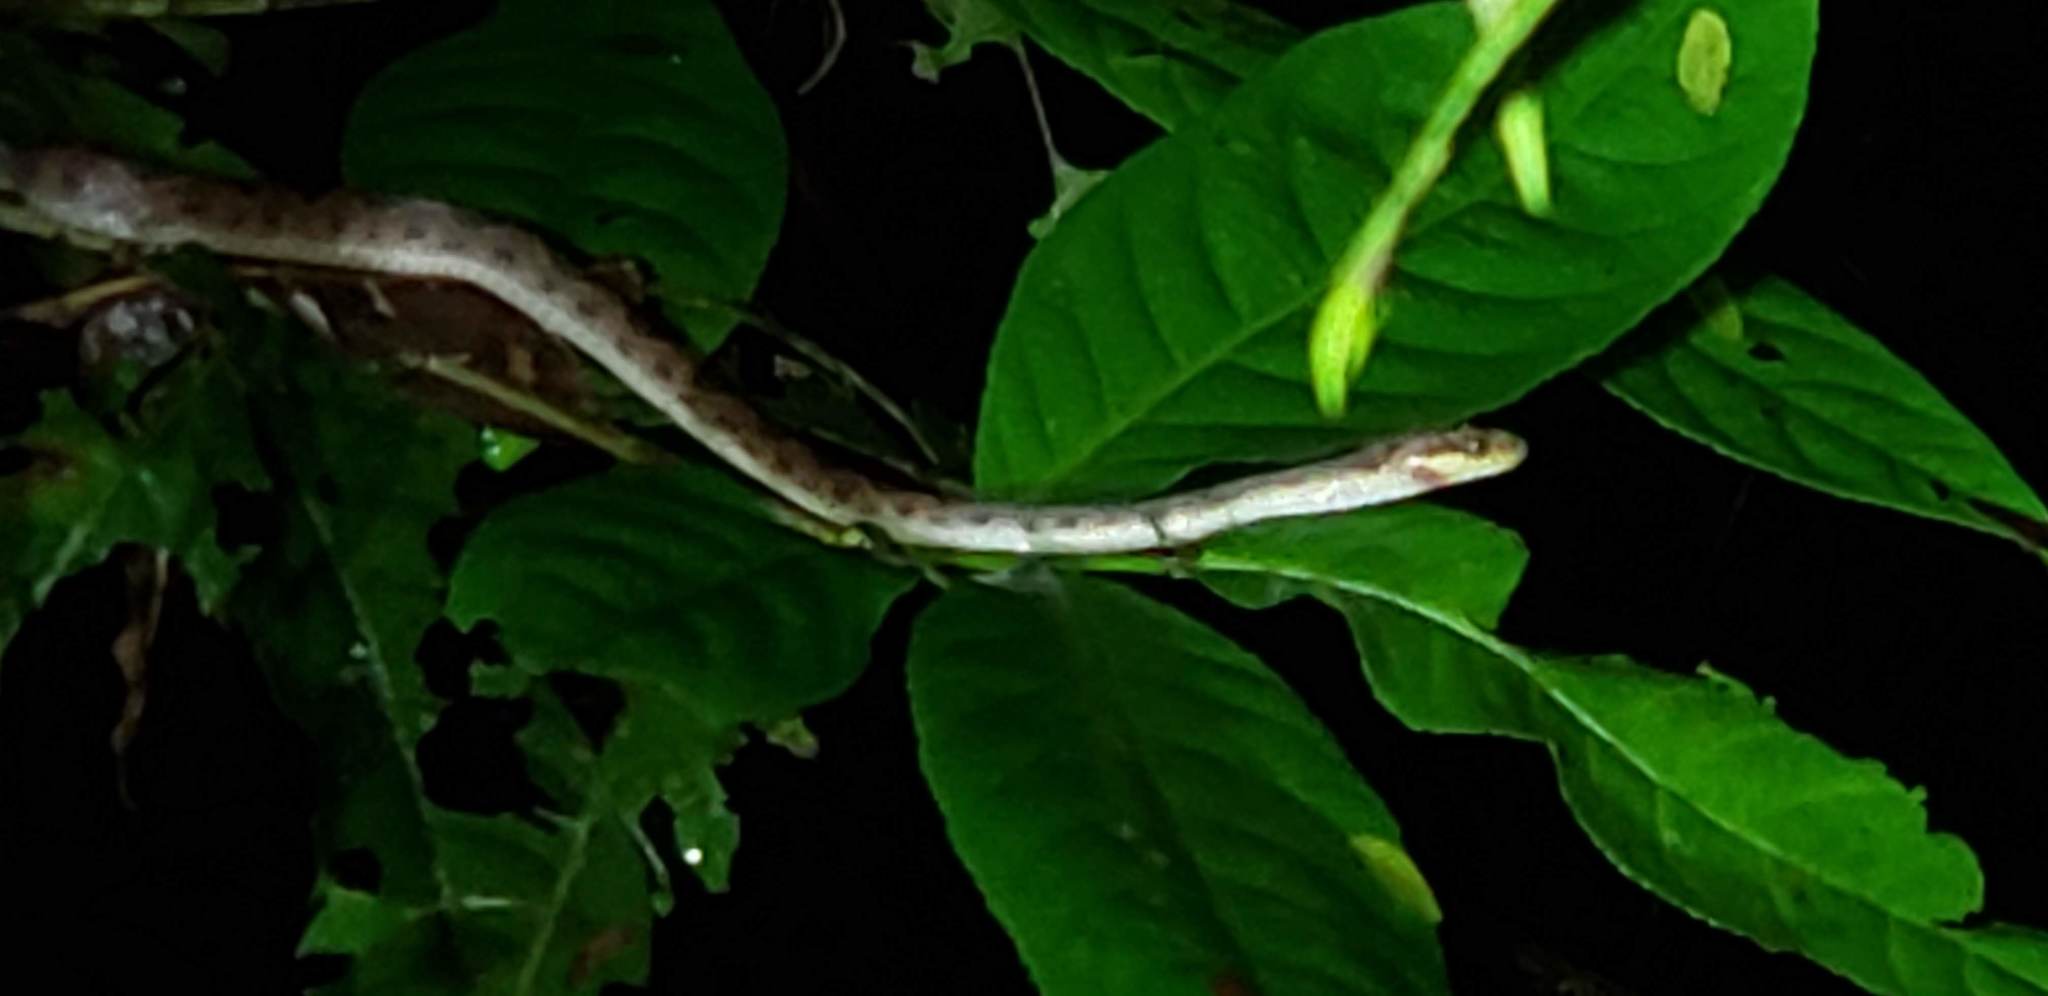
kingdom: Animalia
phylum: Chordata
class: Squamata
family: Colubridae
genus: Leptodeira
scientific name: Leptodeira ornata
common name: Northern cat-eyed snake
